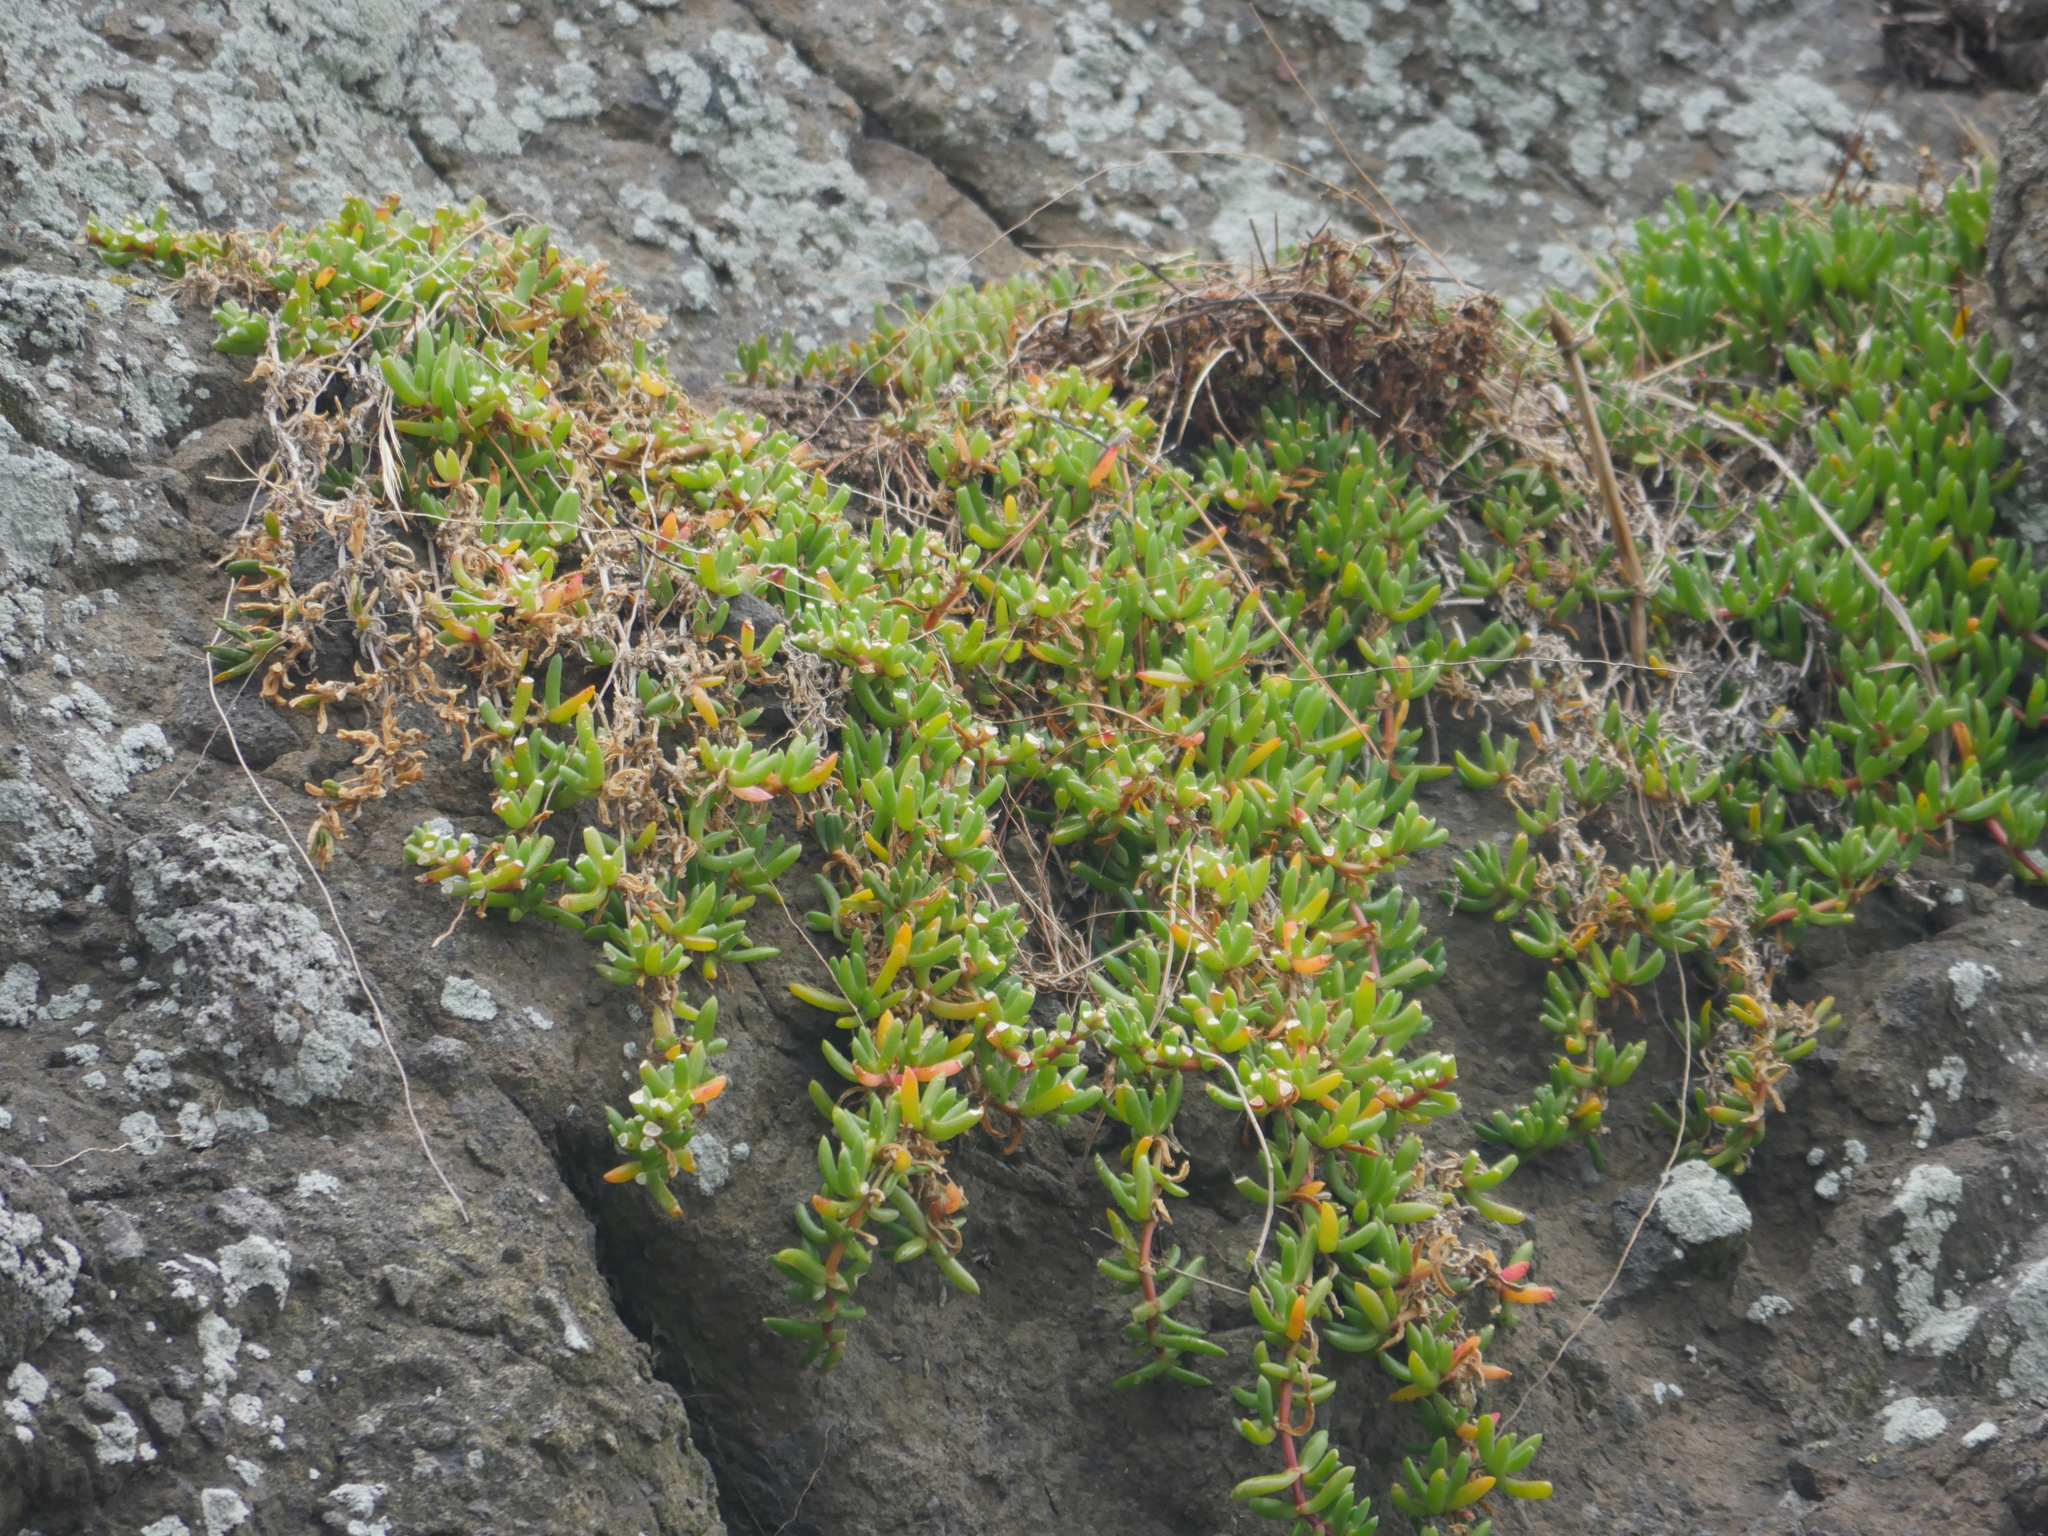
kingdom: Plantae
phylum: Tracheophyta
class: Magnoliopsida
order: Caryophyllales
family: Aizoaceae
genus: Disphyma
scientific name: Disphyma australe
